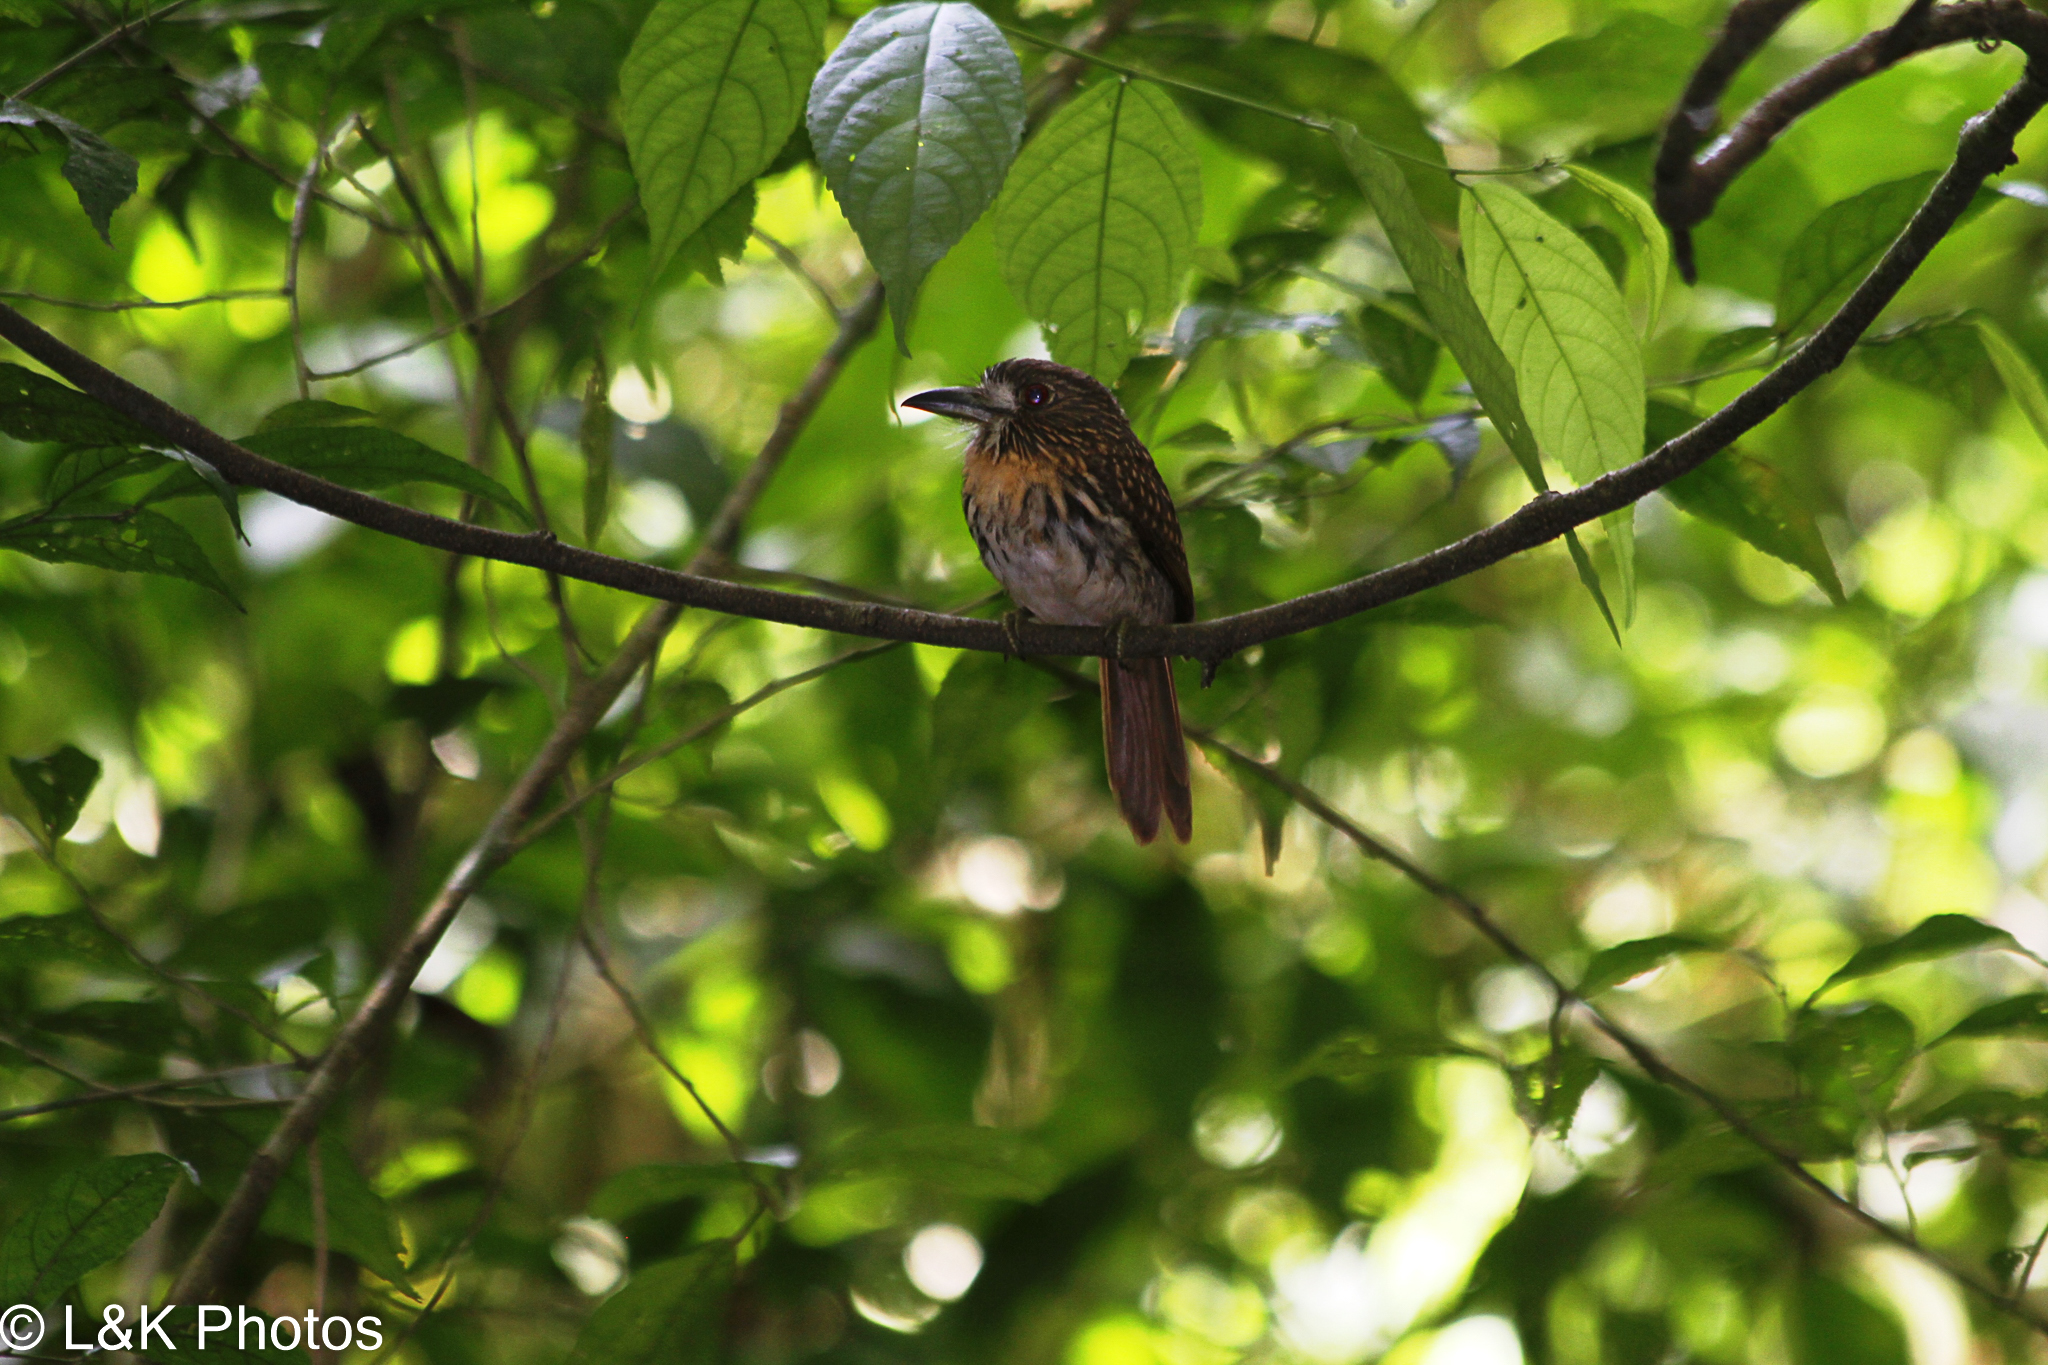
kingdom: Animalia
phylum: Chordata
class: Aves
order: Piciformes
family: Bucconidae
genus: Malacoptila
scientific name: Malacoptila panamensis
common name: White-whiskered puffbird
